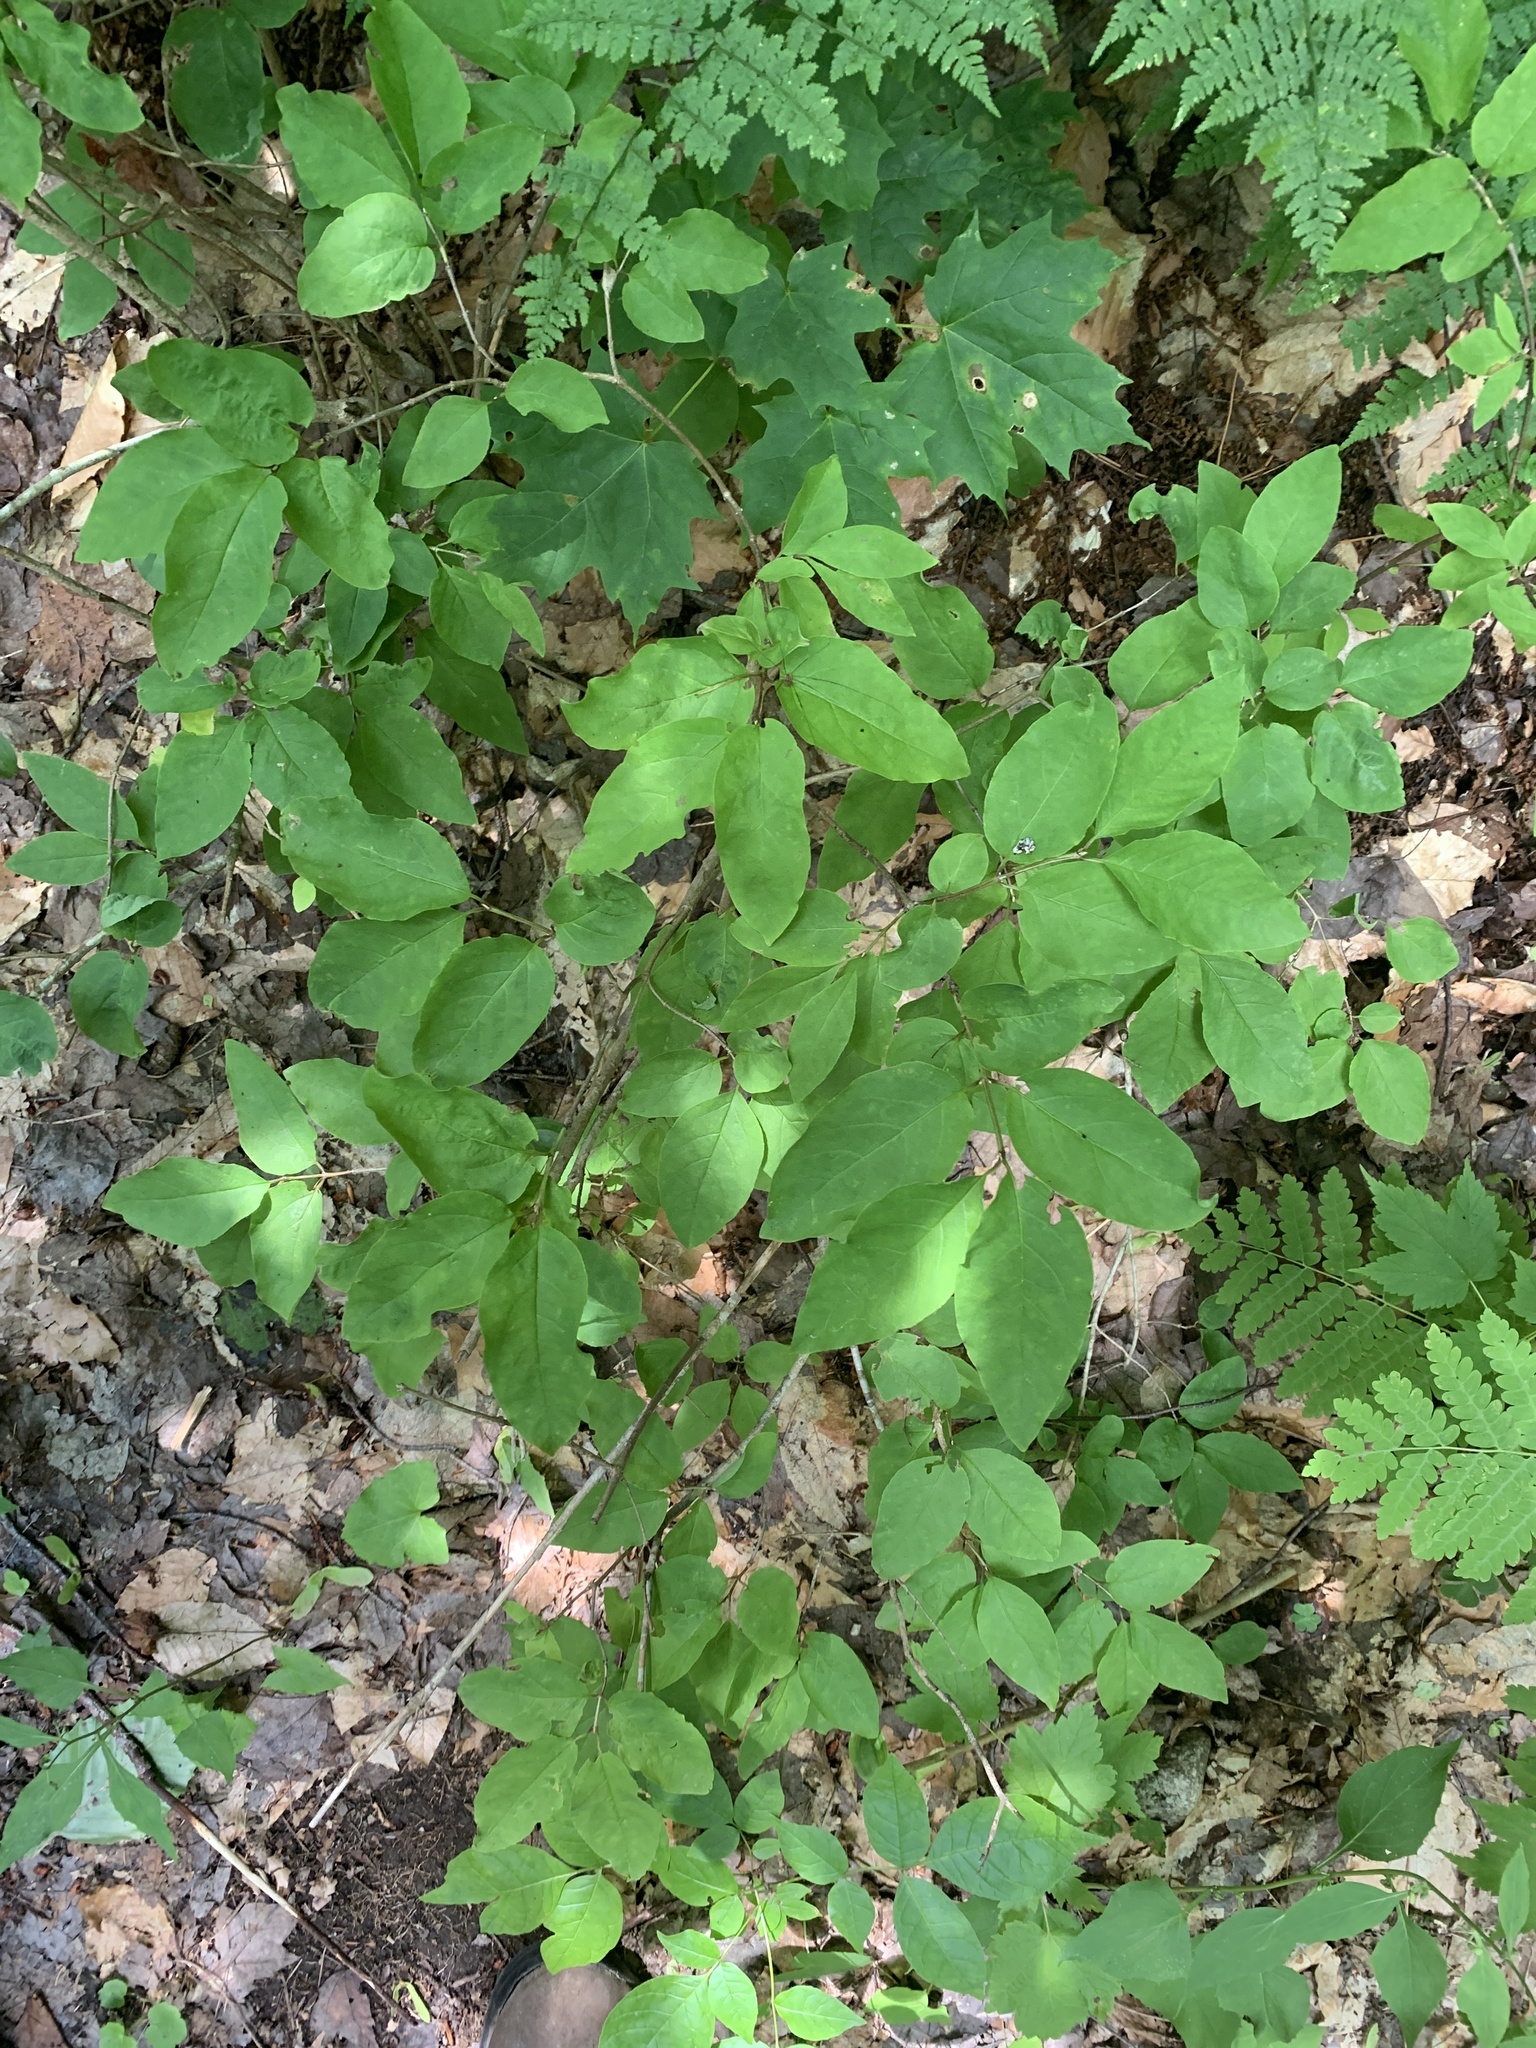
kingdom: Plantae
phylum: Tracheophyta
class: Magnoliopsida
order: Dipsacales
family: Caprifoliaceae
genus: Lonicera
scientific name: Lonicera canadensis
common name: American fly-honeysuckle
